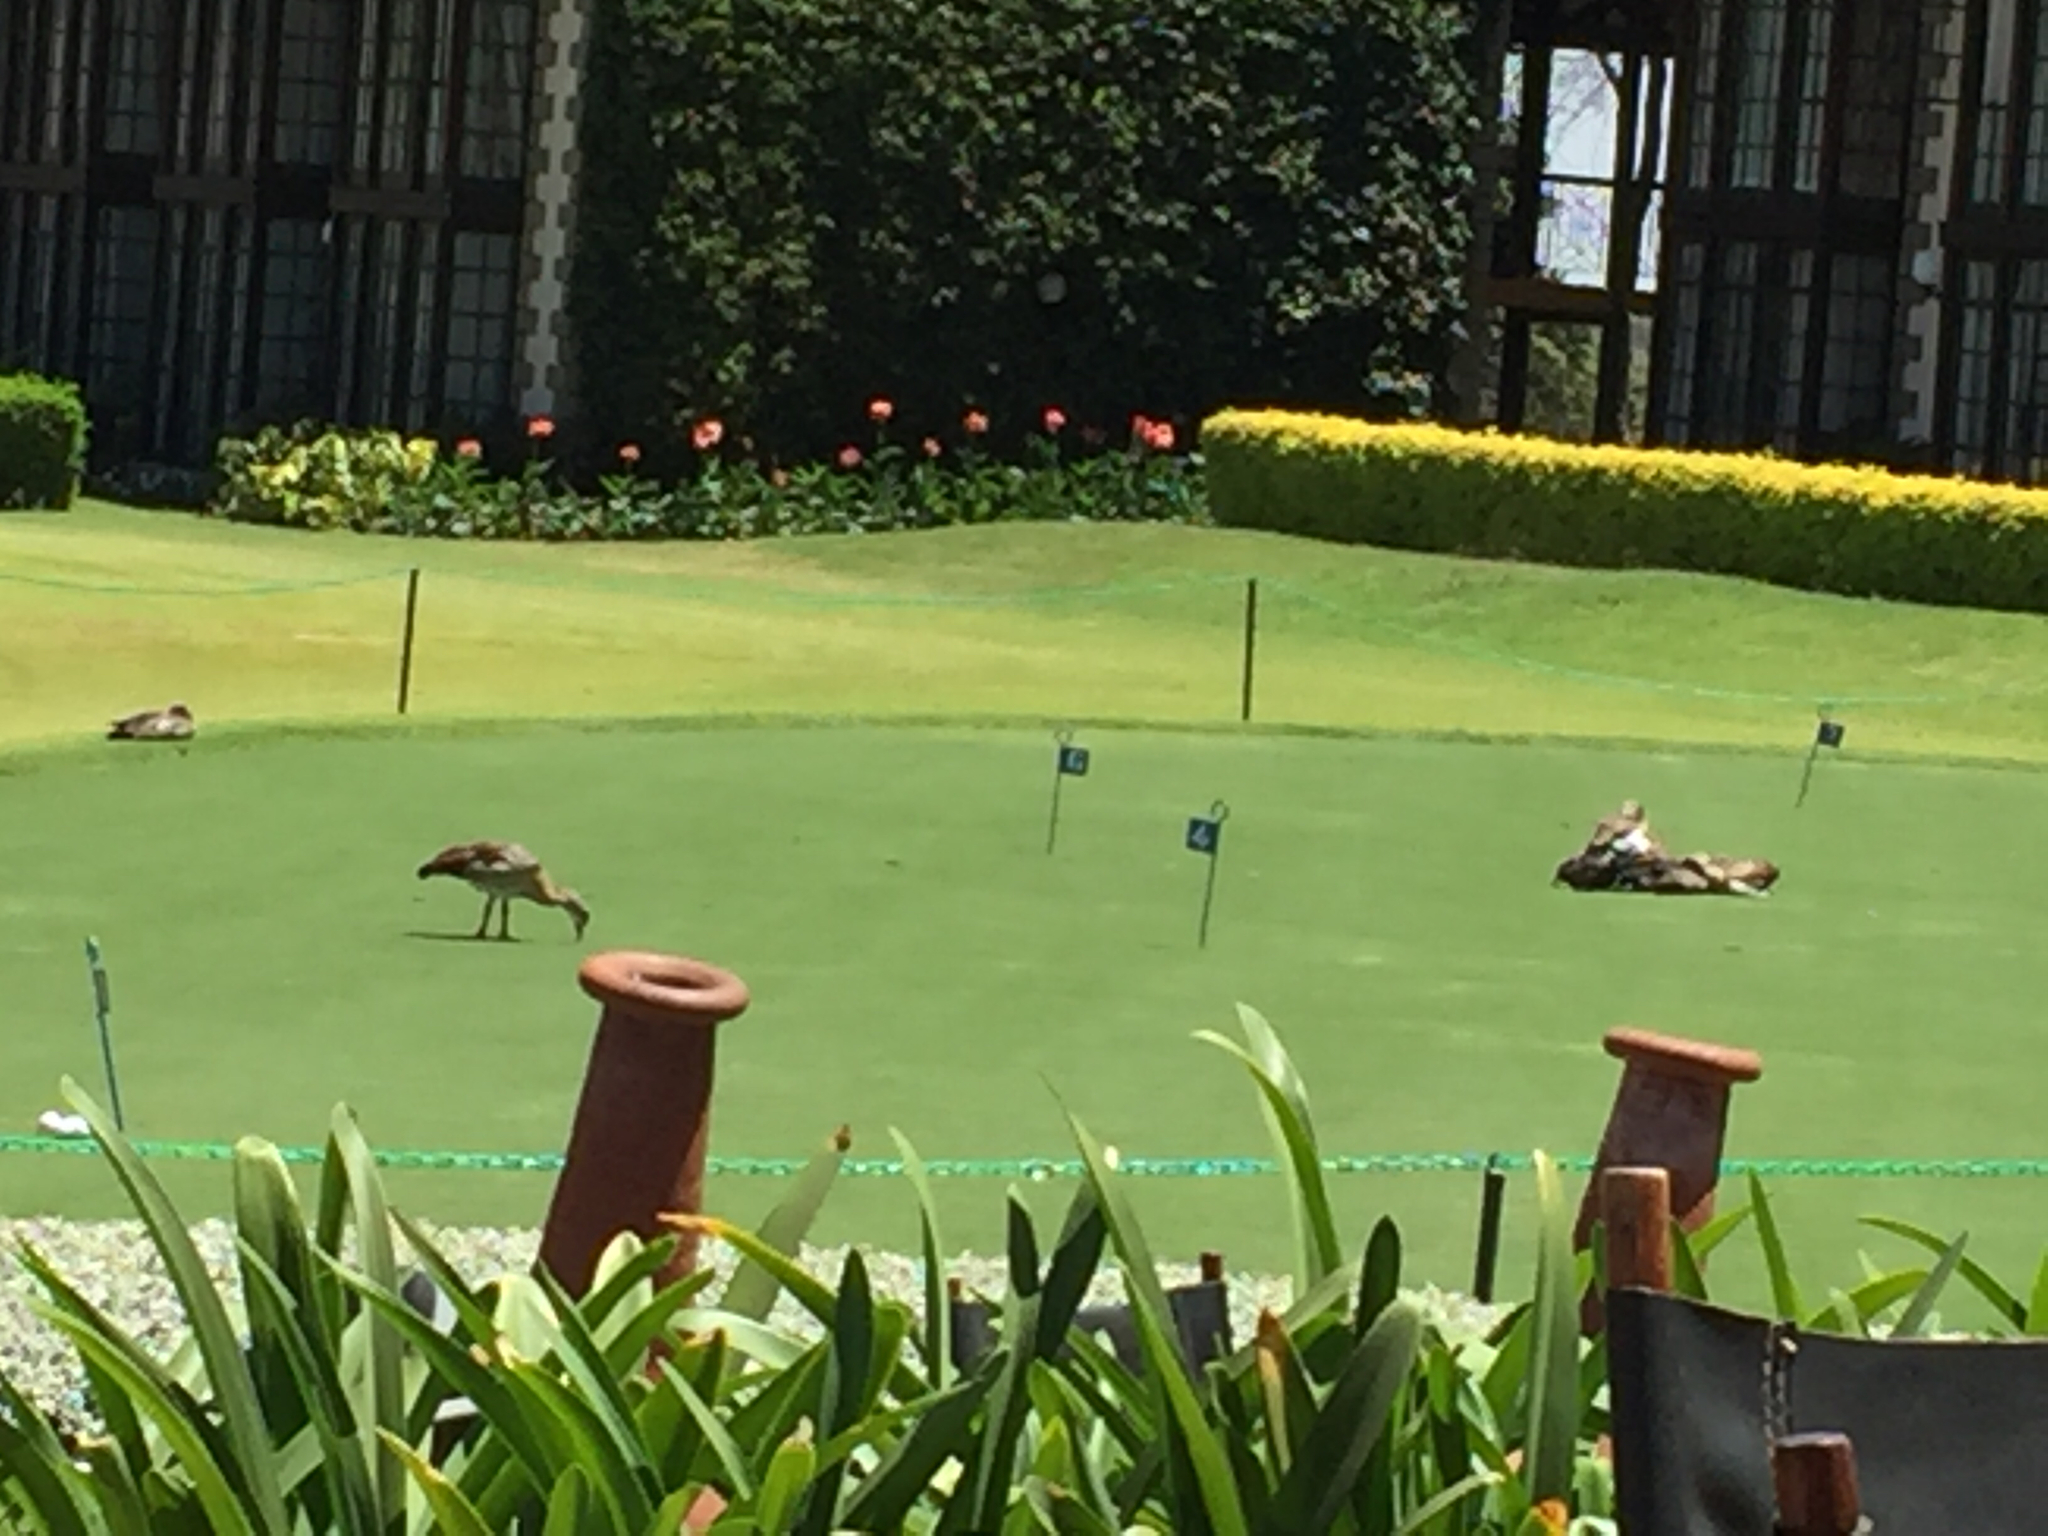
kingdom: Animalia
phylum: Chordata
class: Aves
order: Anseriformes
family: Anatidae
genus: Alopochen
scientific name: Alopochen aegyptiaca
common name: Egyptian goose
